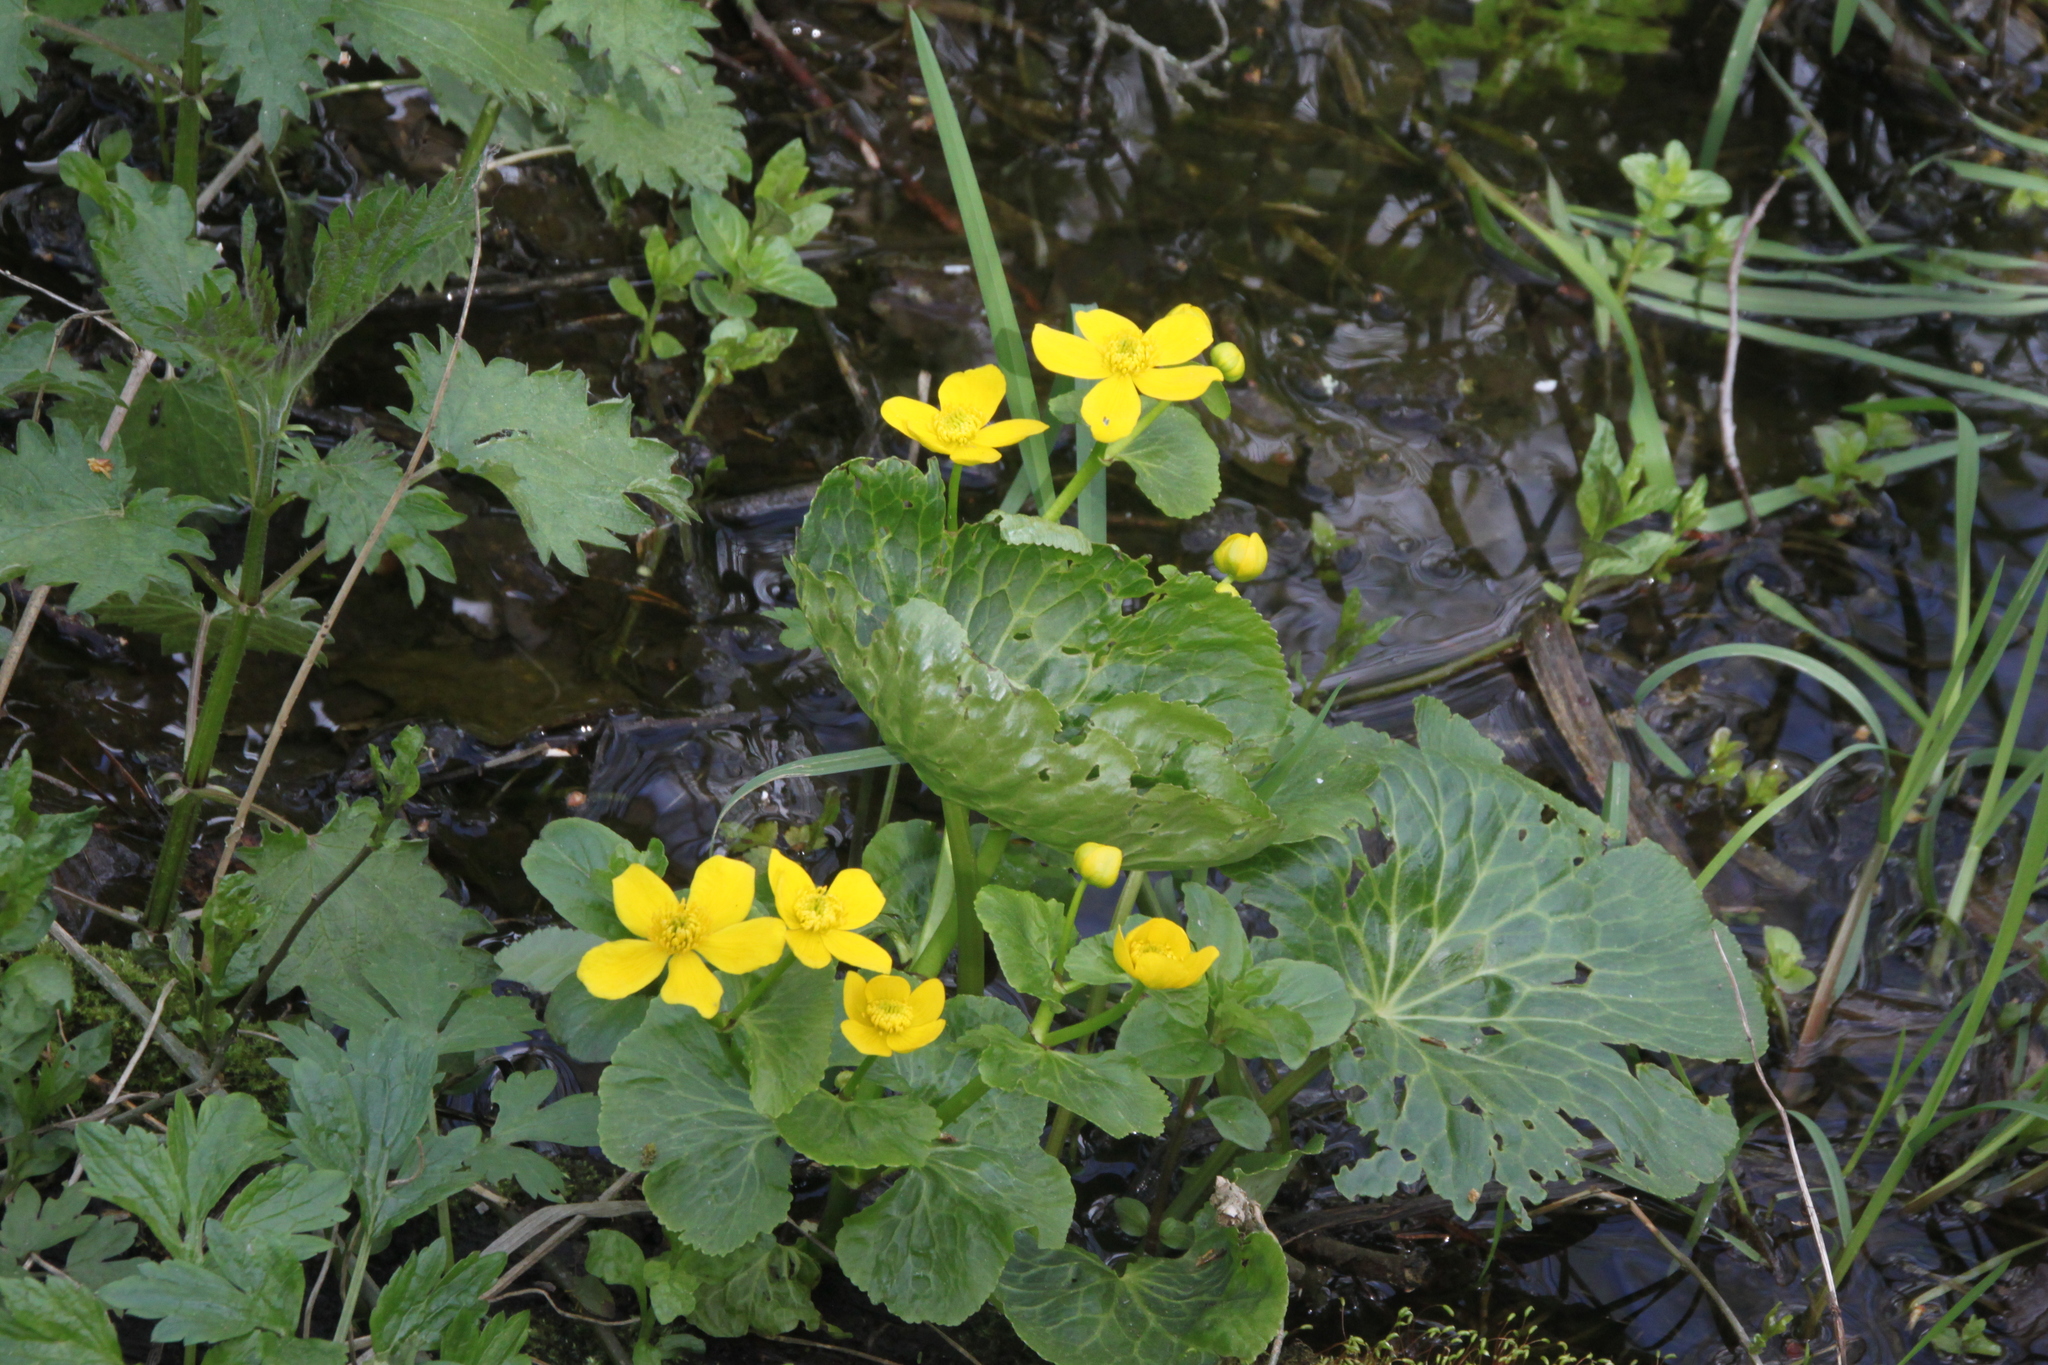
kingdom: Plantae
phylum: Tracheophyta
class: Magnoliopsida
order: Ranunculales
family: Ranunculaceae
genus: Caltha
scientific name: Caltha palustris
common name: Marsh marigold
